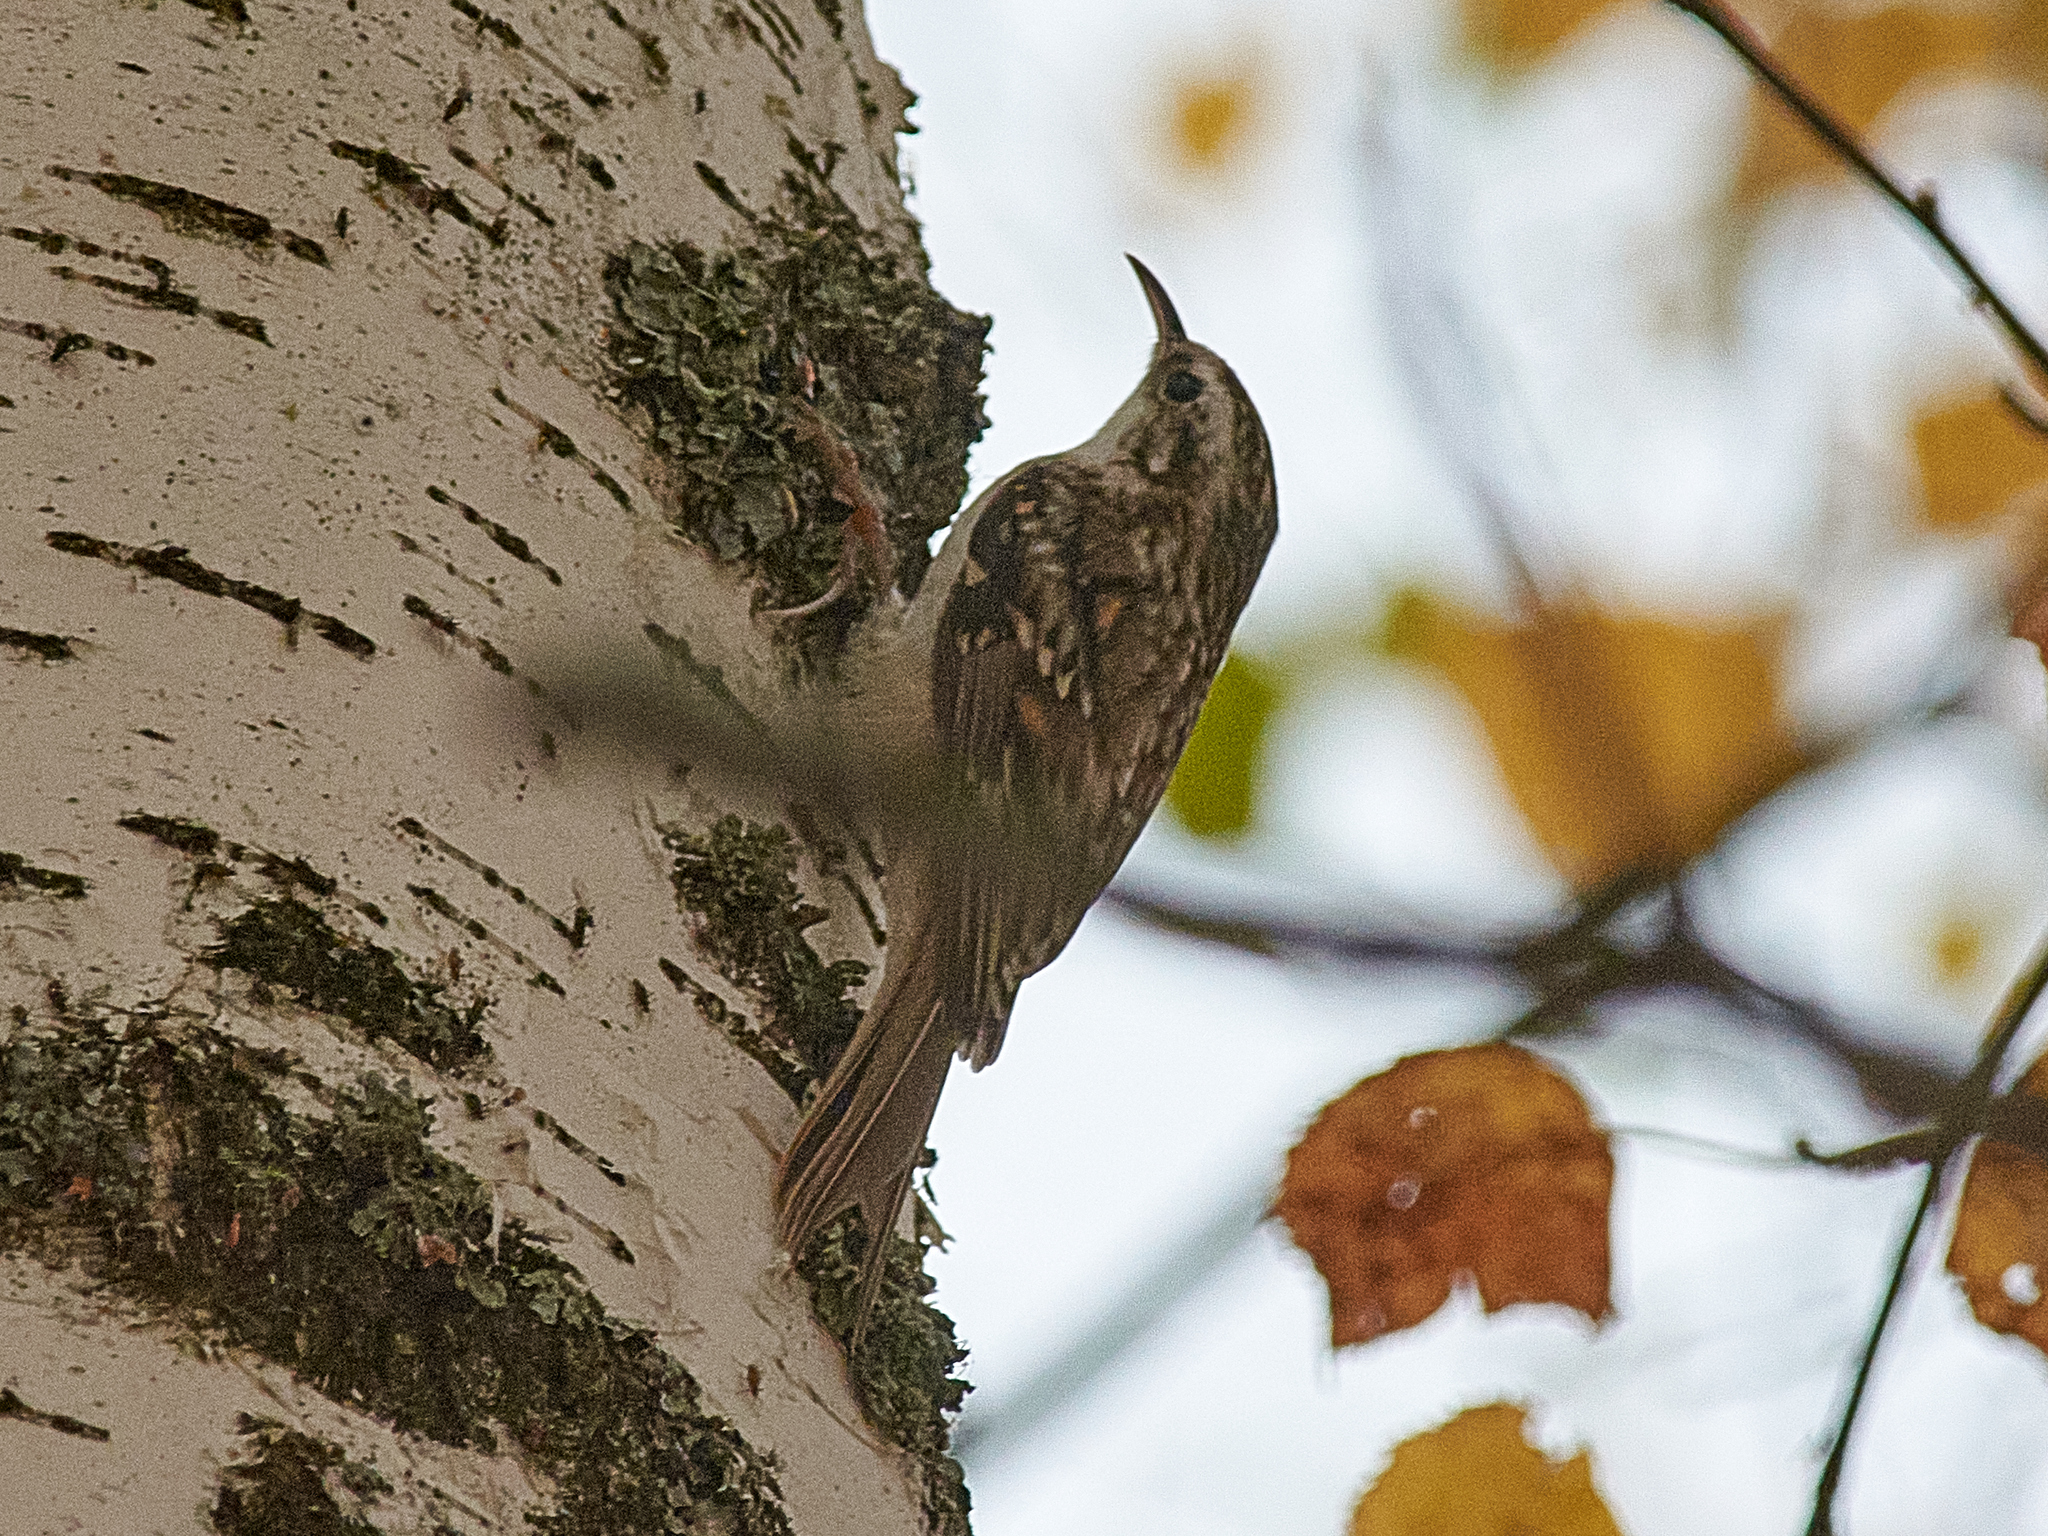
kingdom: Animalia
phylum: Chordata
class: Aves
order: Passeriformes
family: Certhiidae
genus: Certhia
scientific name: Certhia familiaris
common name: Eurasian treecreeper
